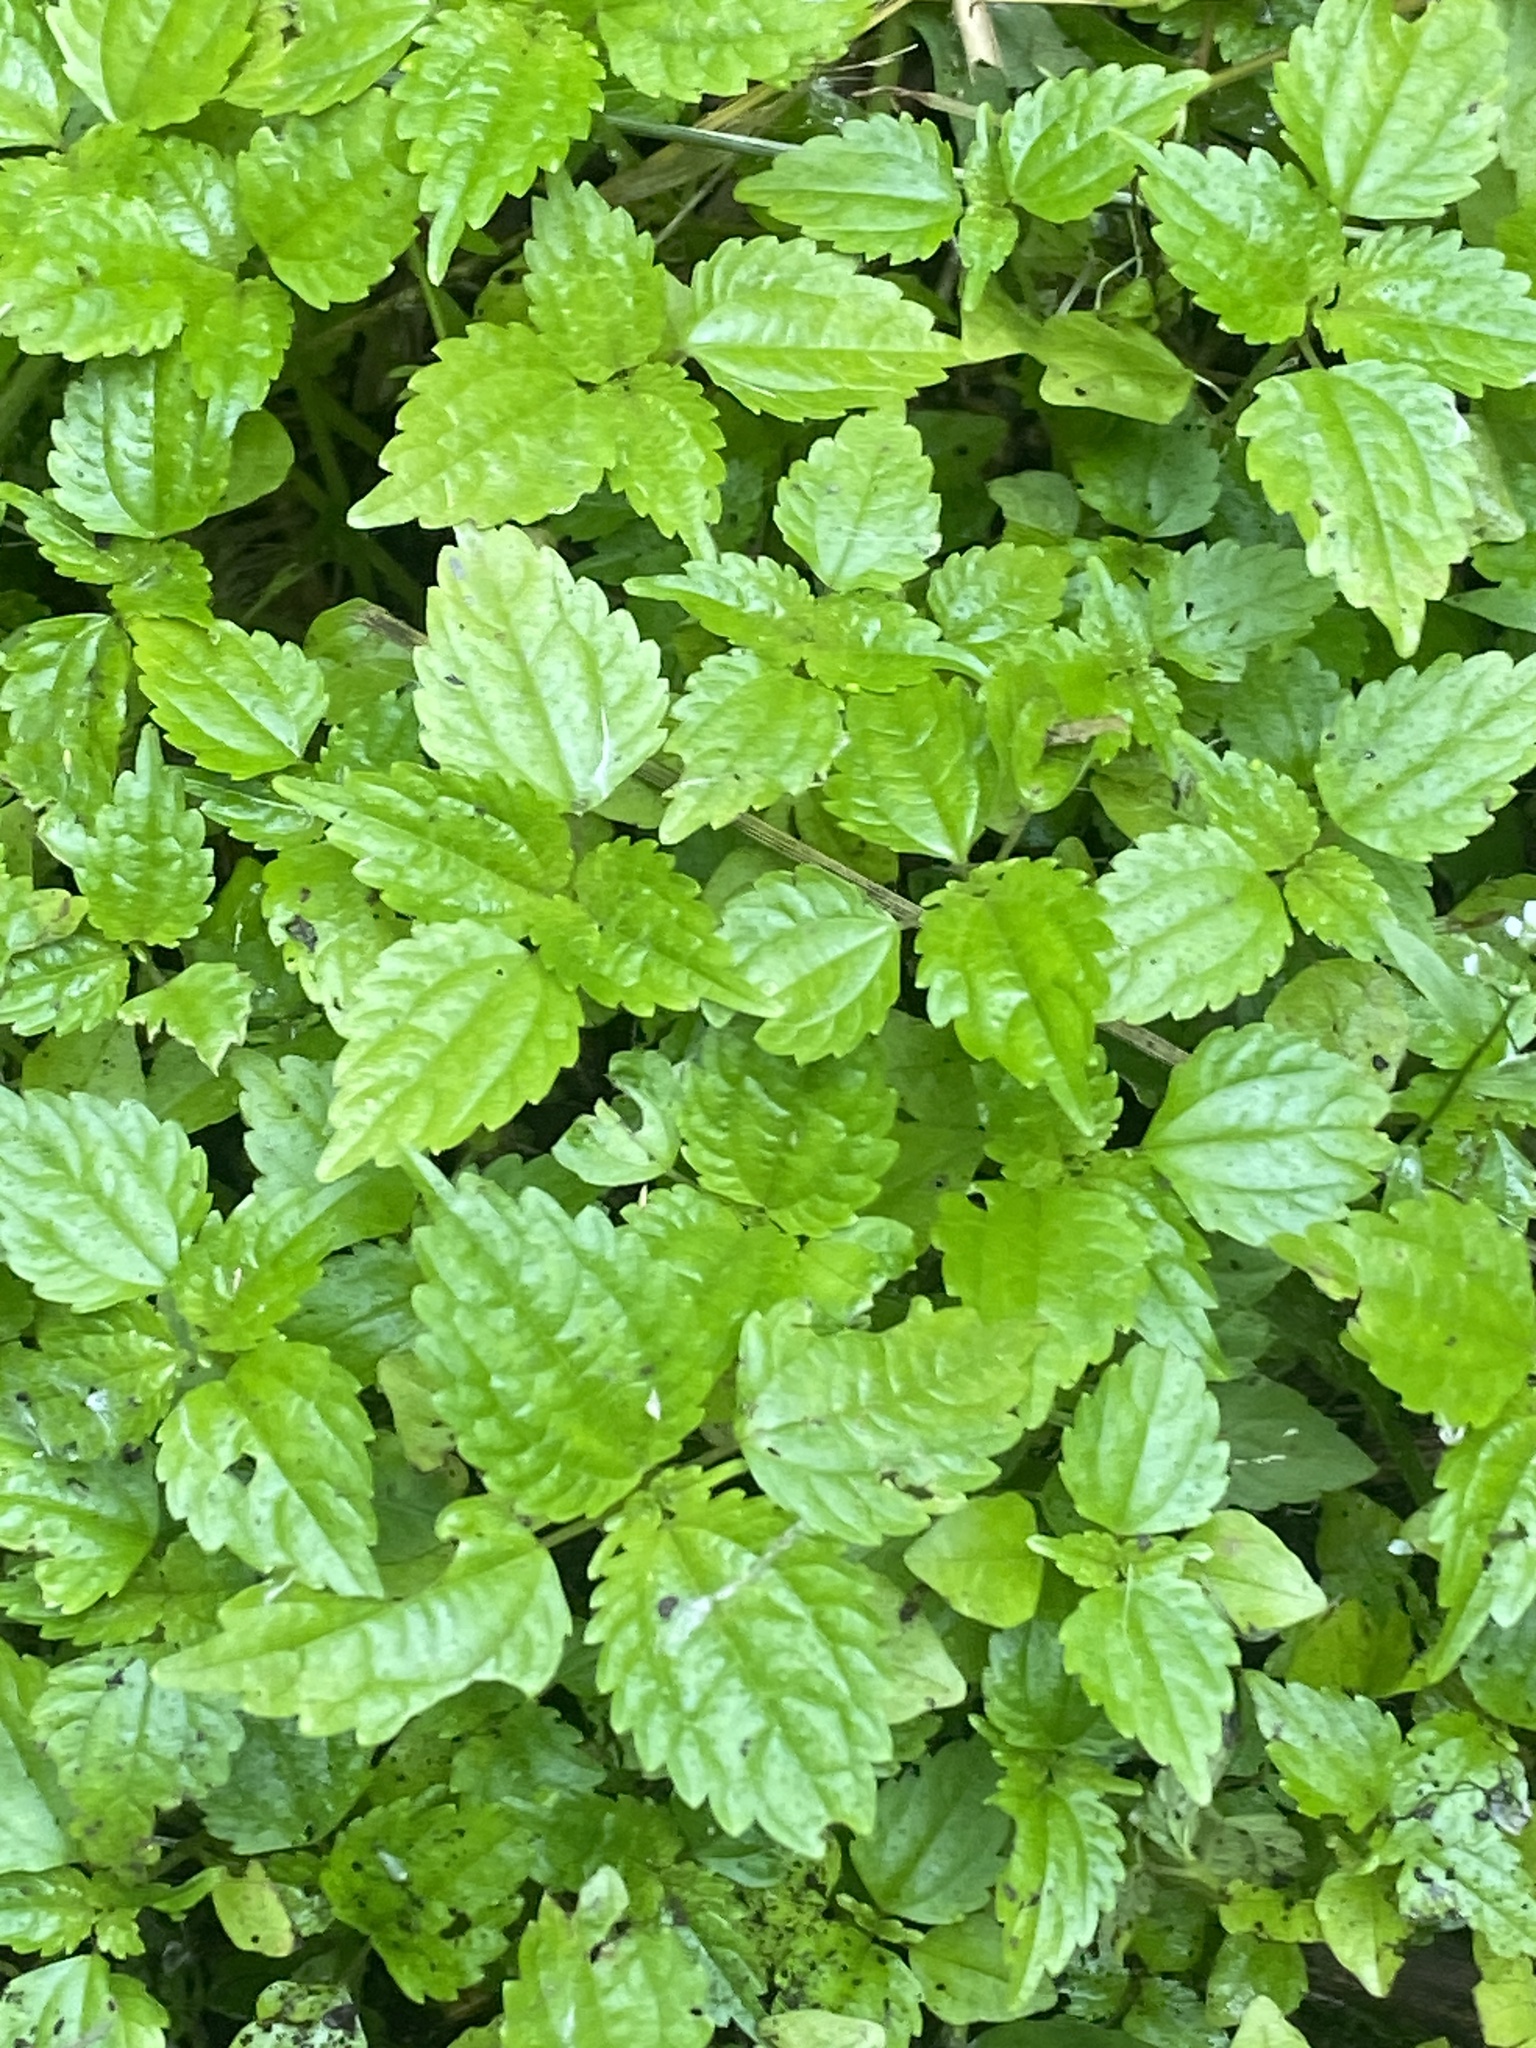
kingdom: Plantae
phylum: Tracheophyta
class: Magnoliopsida
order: Rosales
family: Urticaceae
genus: Pilea
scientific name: Pilea pumila
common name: Clearweed
